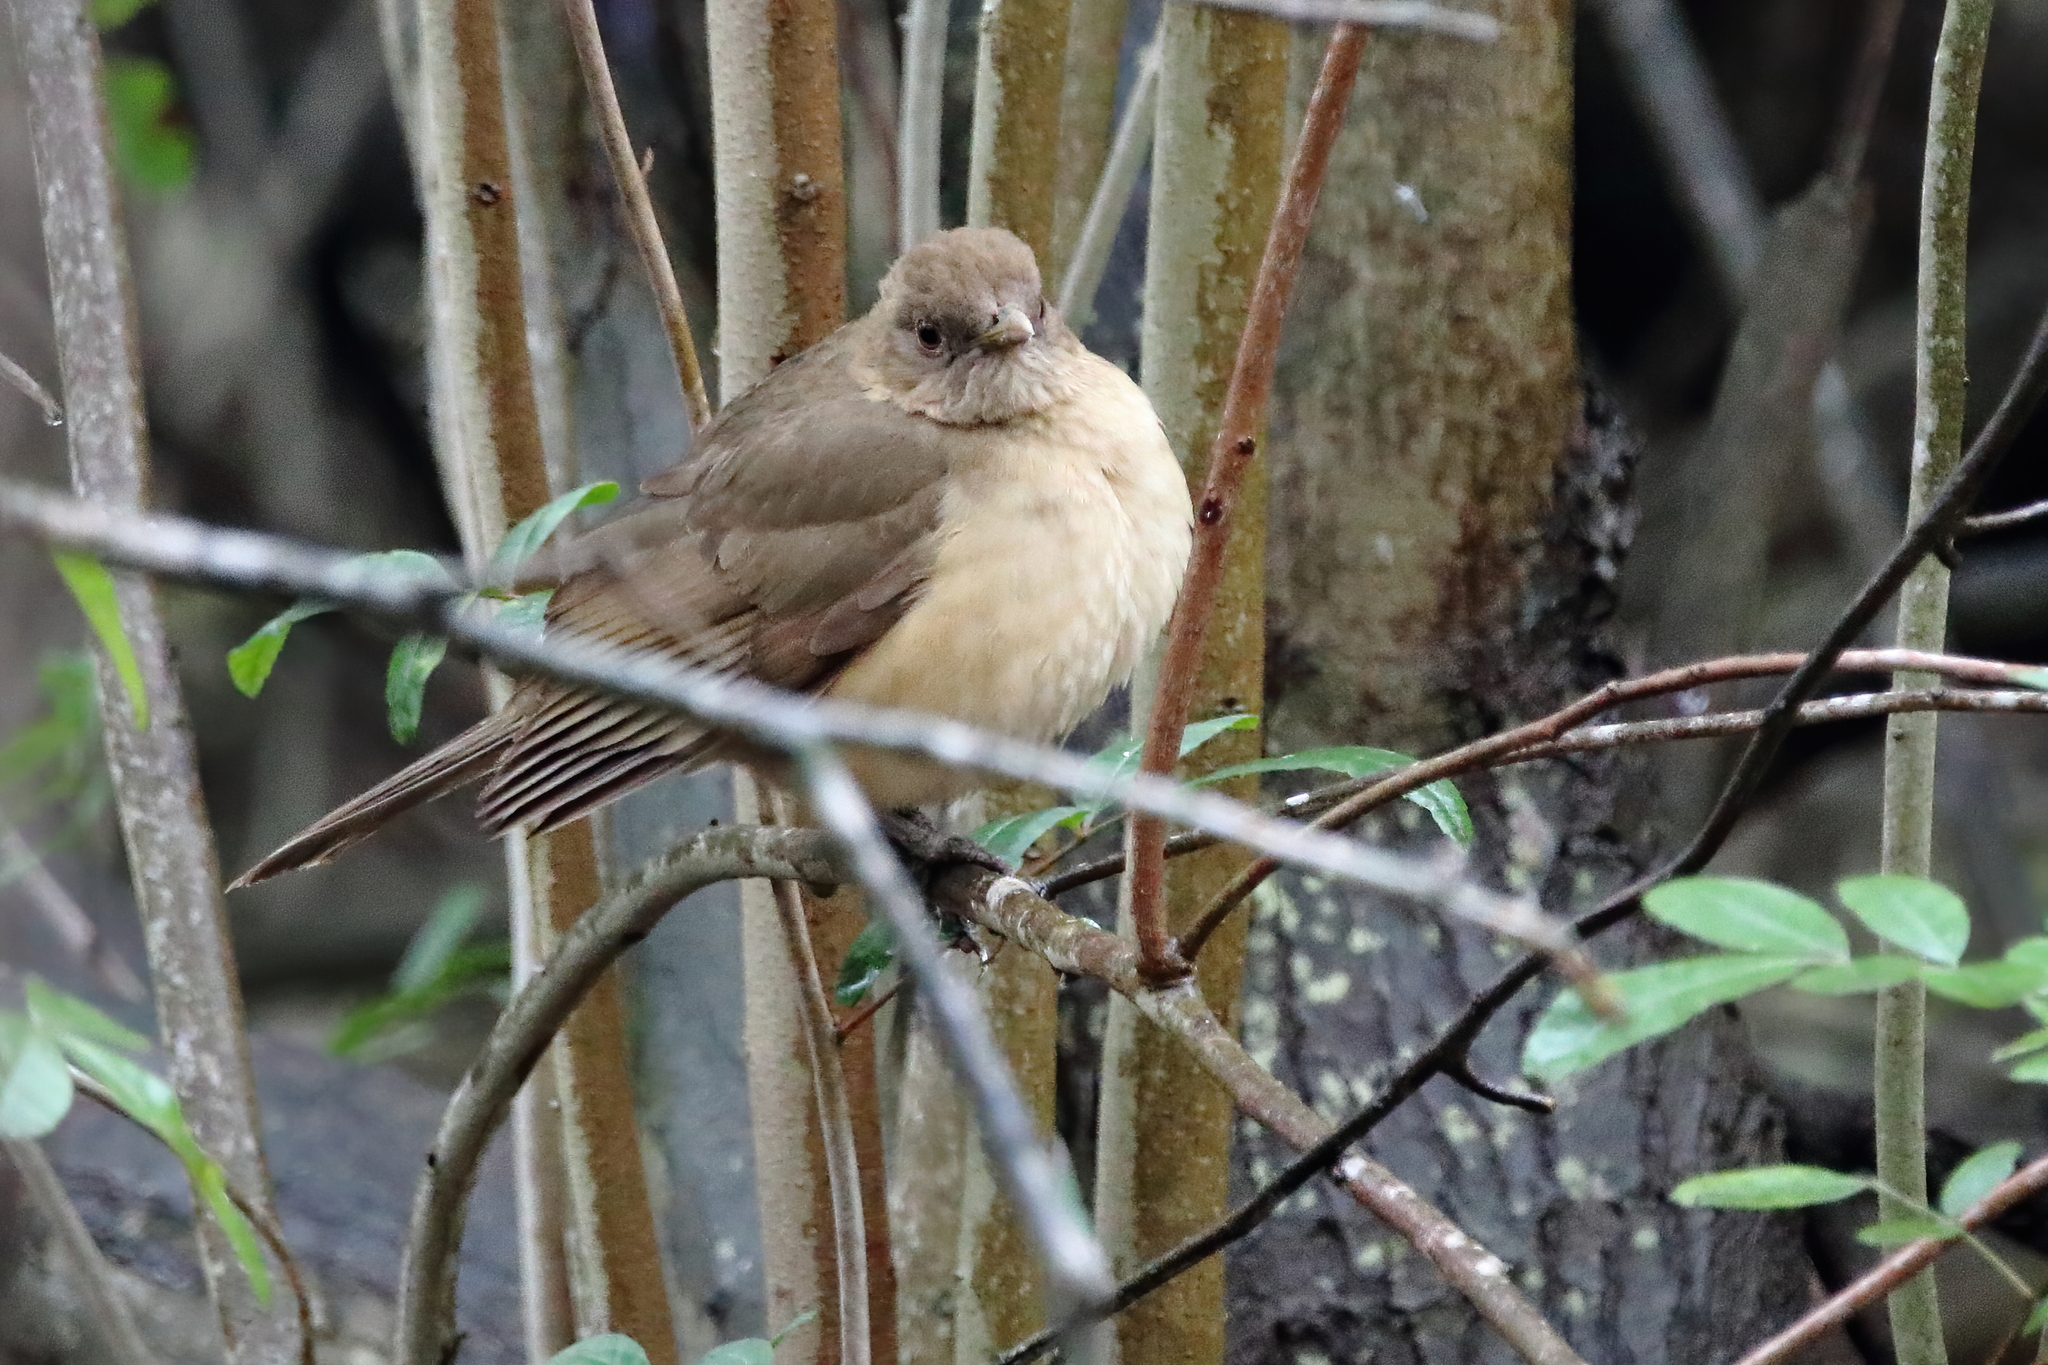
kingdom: Animalia
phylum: Chordata
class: Aves
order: Passeriformes
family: Turdidae
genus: Turdus
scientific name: Turdus grayi
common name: Clay-colored thrush
